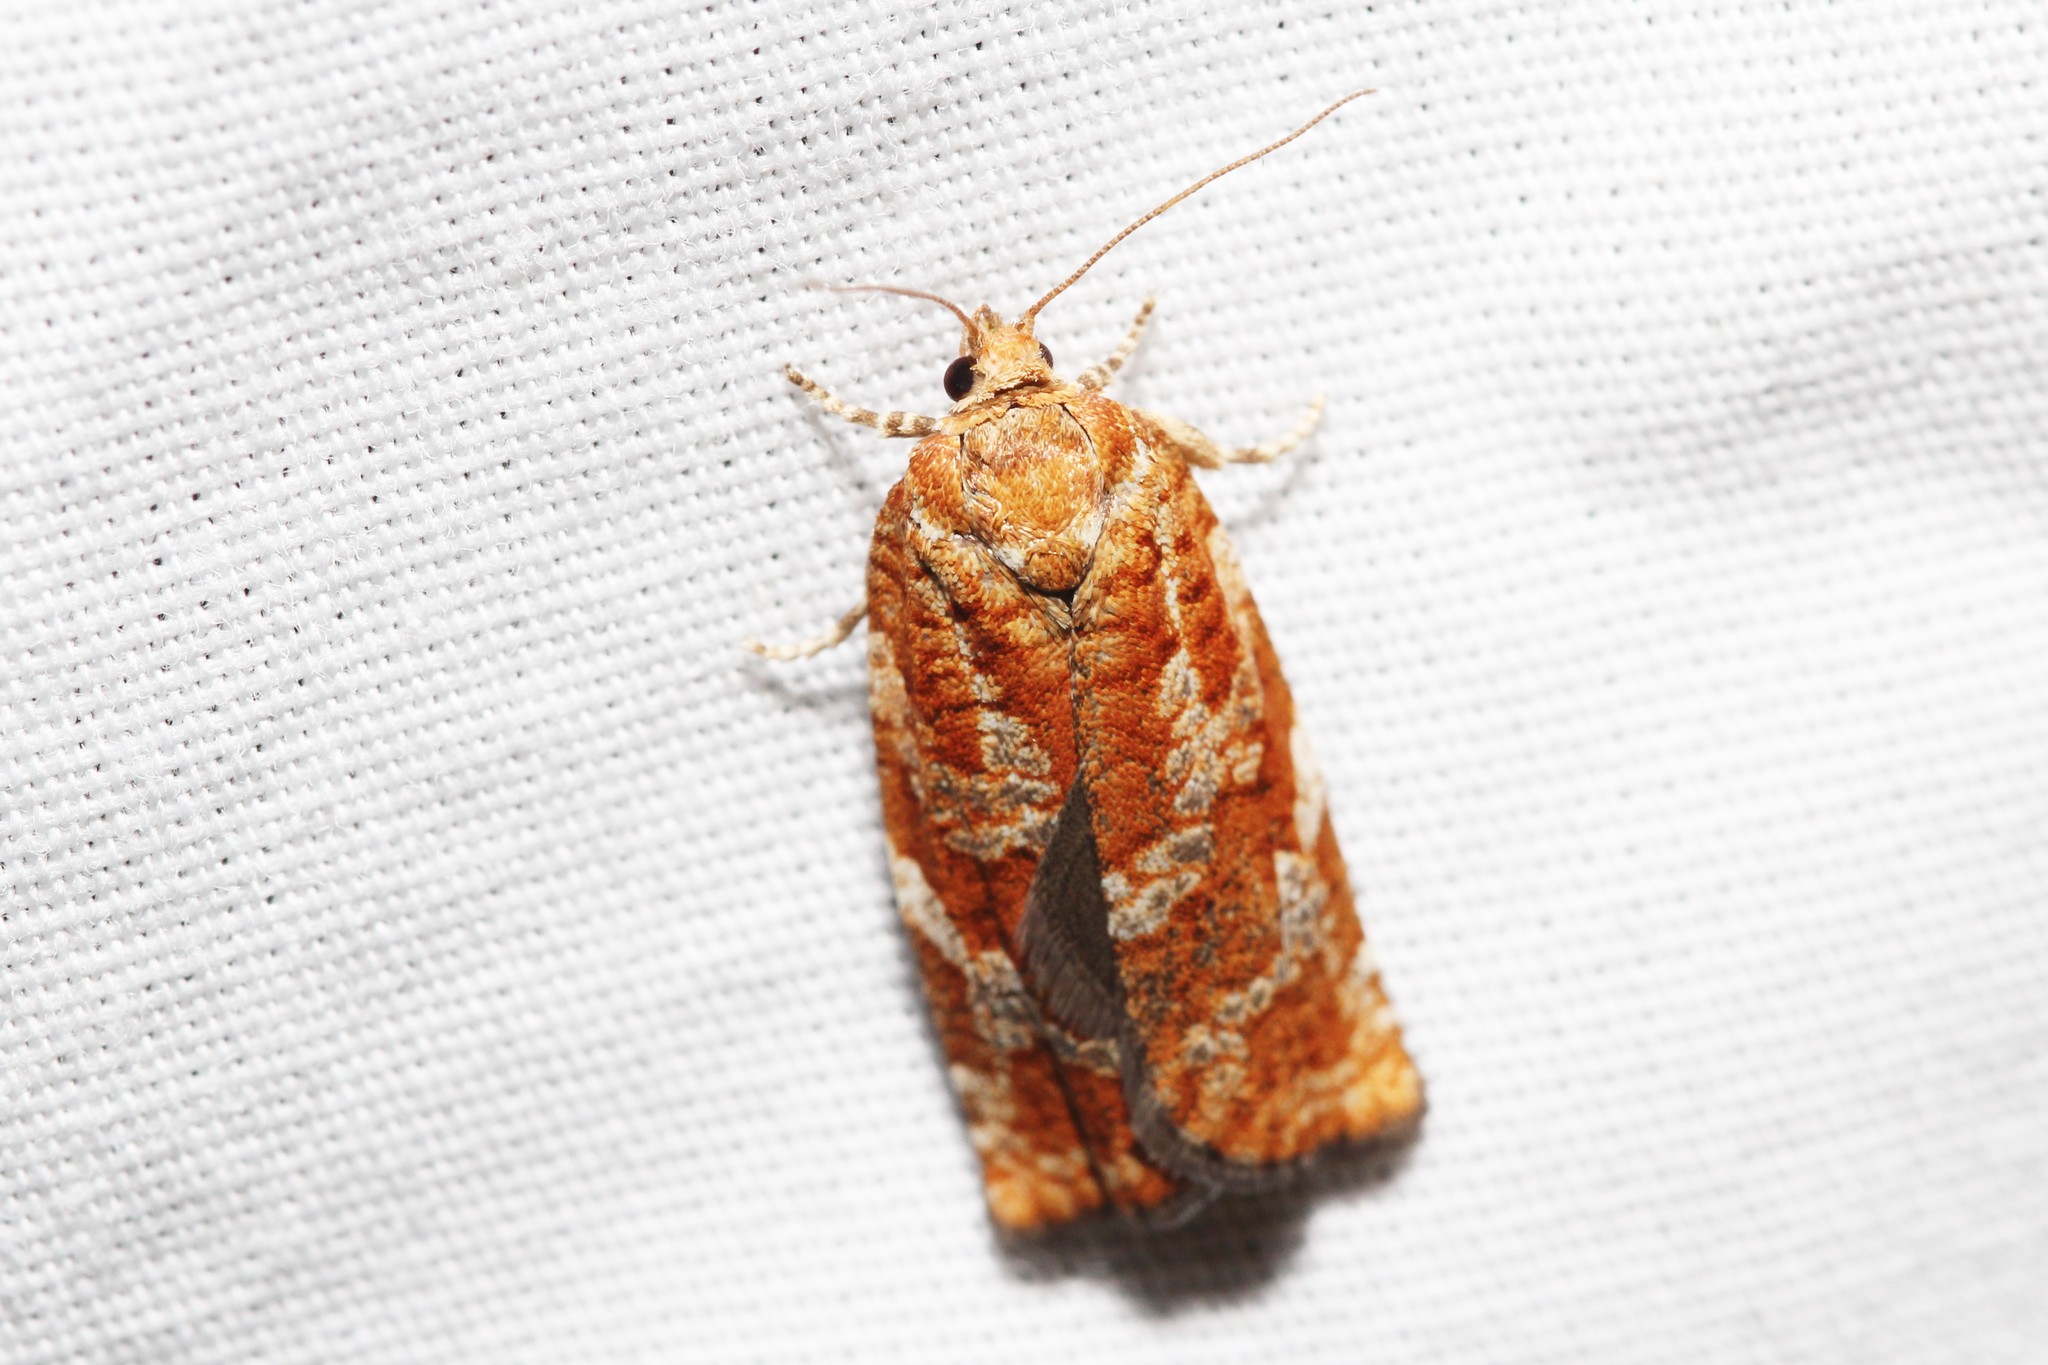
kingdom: Animalia
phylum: Arthropoda
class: Insecta
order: Lepidoptera
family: Tortricidae
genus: Choristoneura
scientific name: Choristoneura pinus
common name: Jack pine budworm
